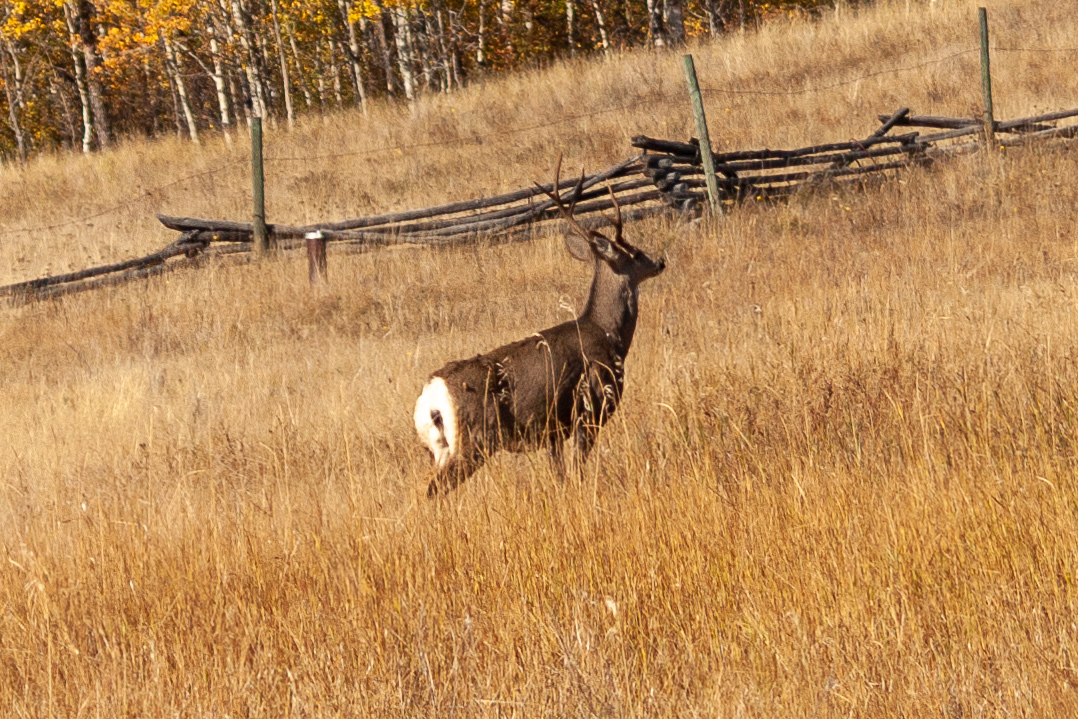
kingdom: Animalia
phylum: Chordata
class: Mammalia
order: Artiodactyla
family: Cervidae
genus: Odocoileus
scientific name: Odocoileus hemionus
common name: Mule deer
